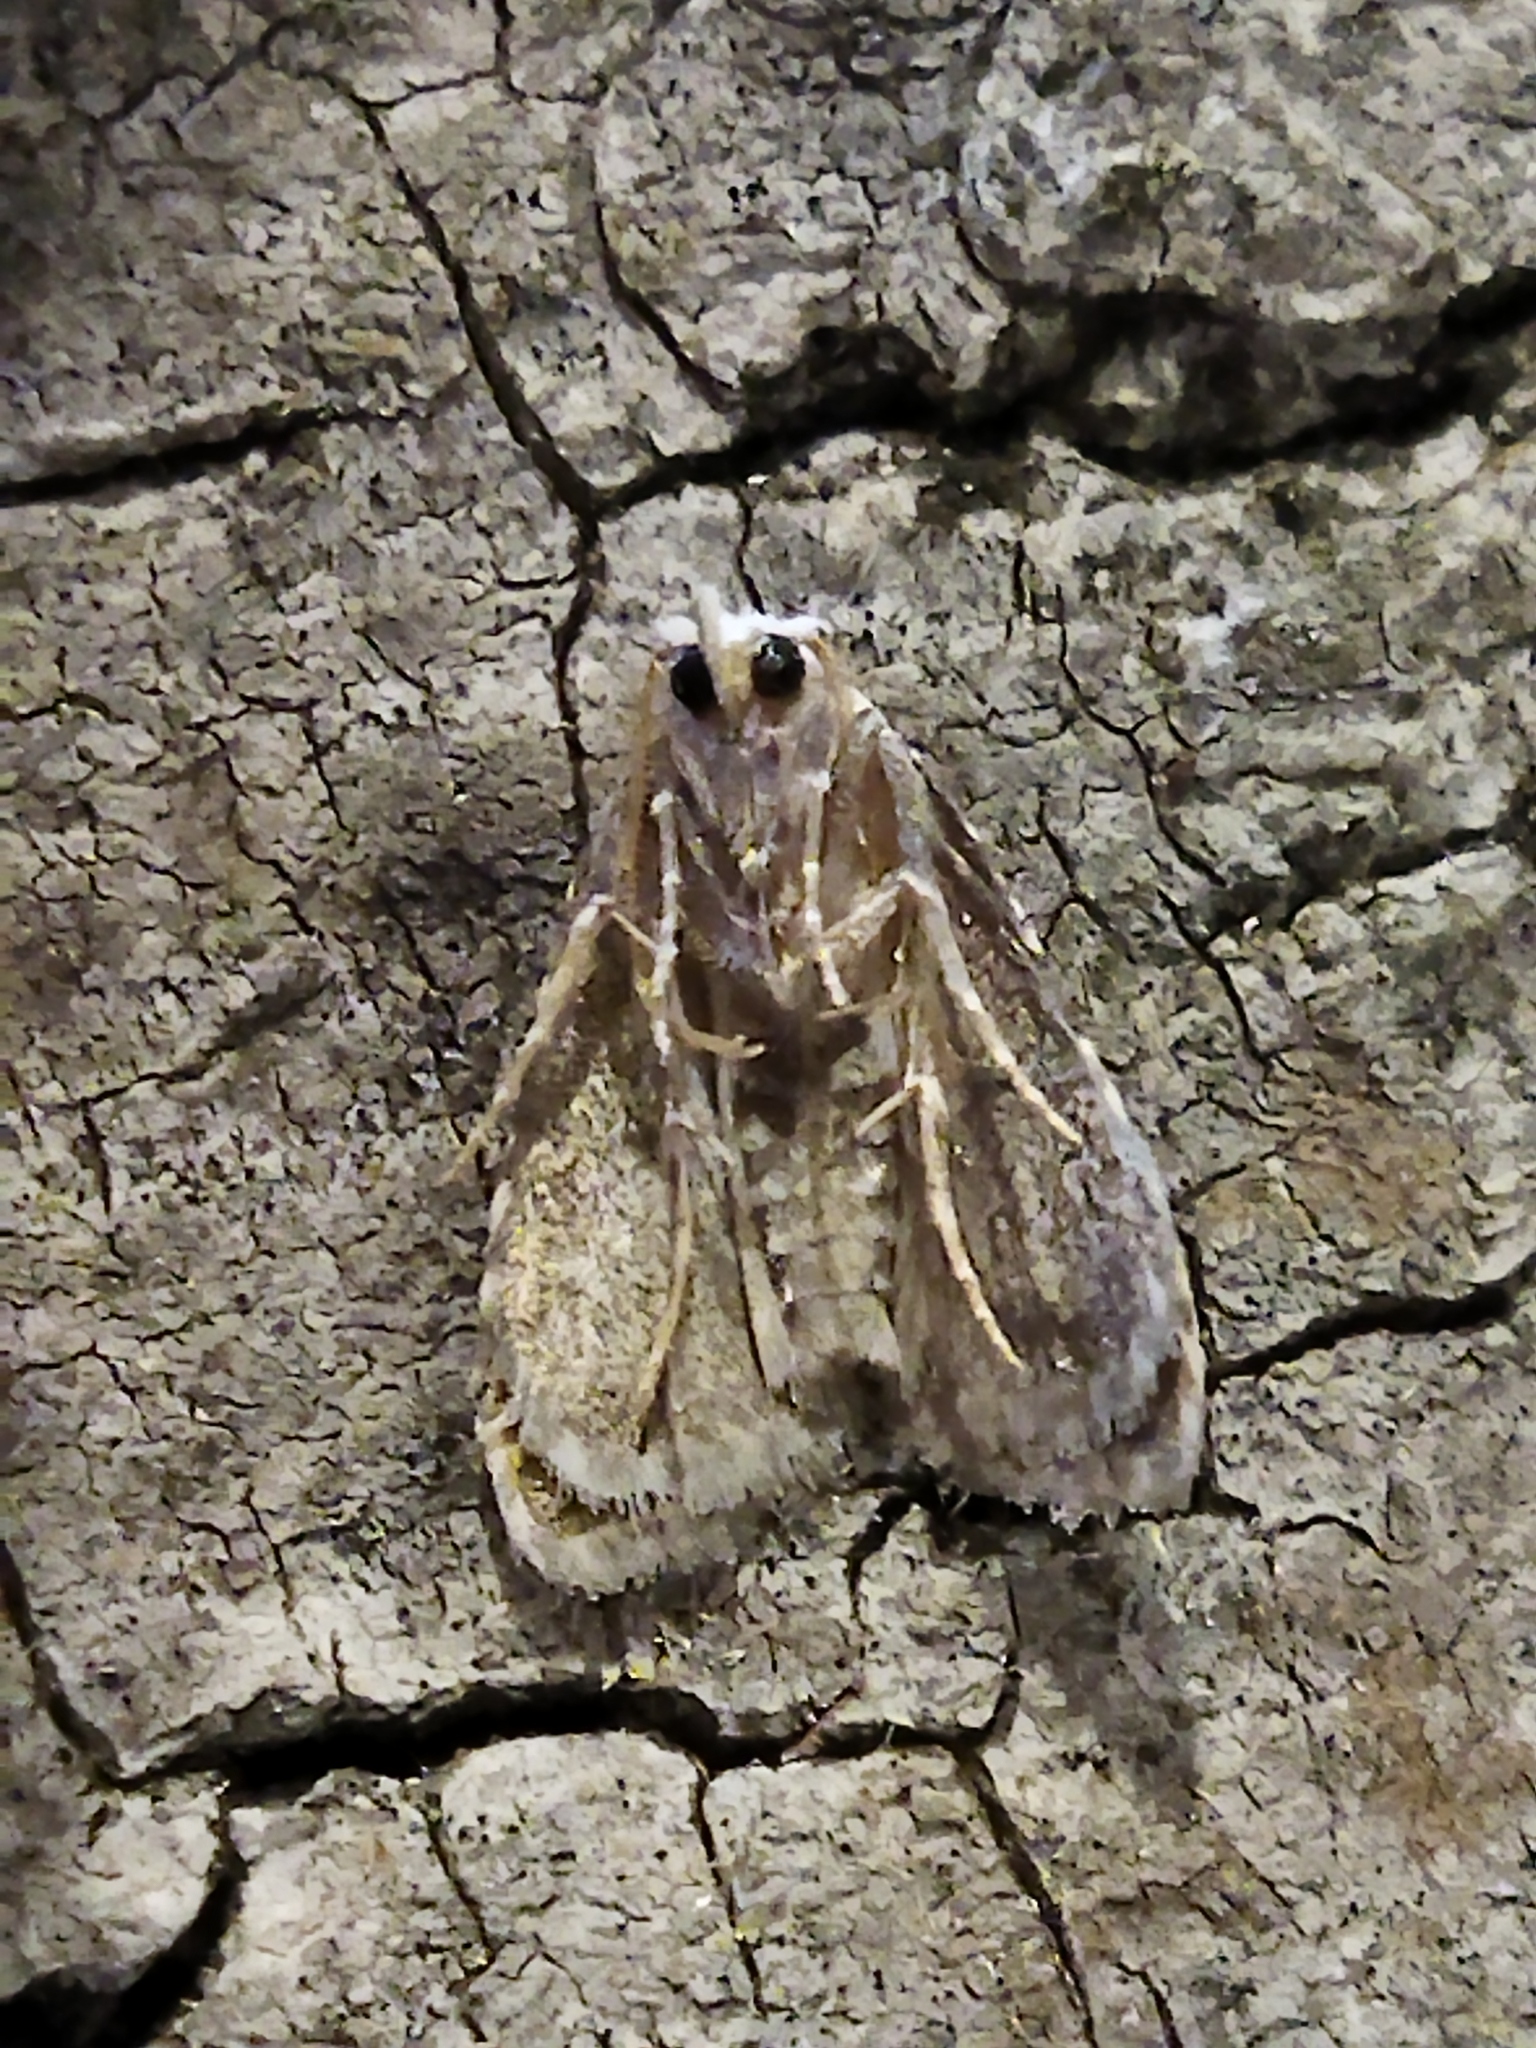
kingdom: Animalia
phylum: Arthropoda
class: Insecta
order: Lepidoptera
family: Nolidae
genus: Meganola
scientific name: Meganola albula
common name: Kent black arches
